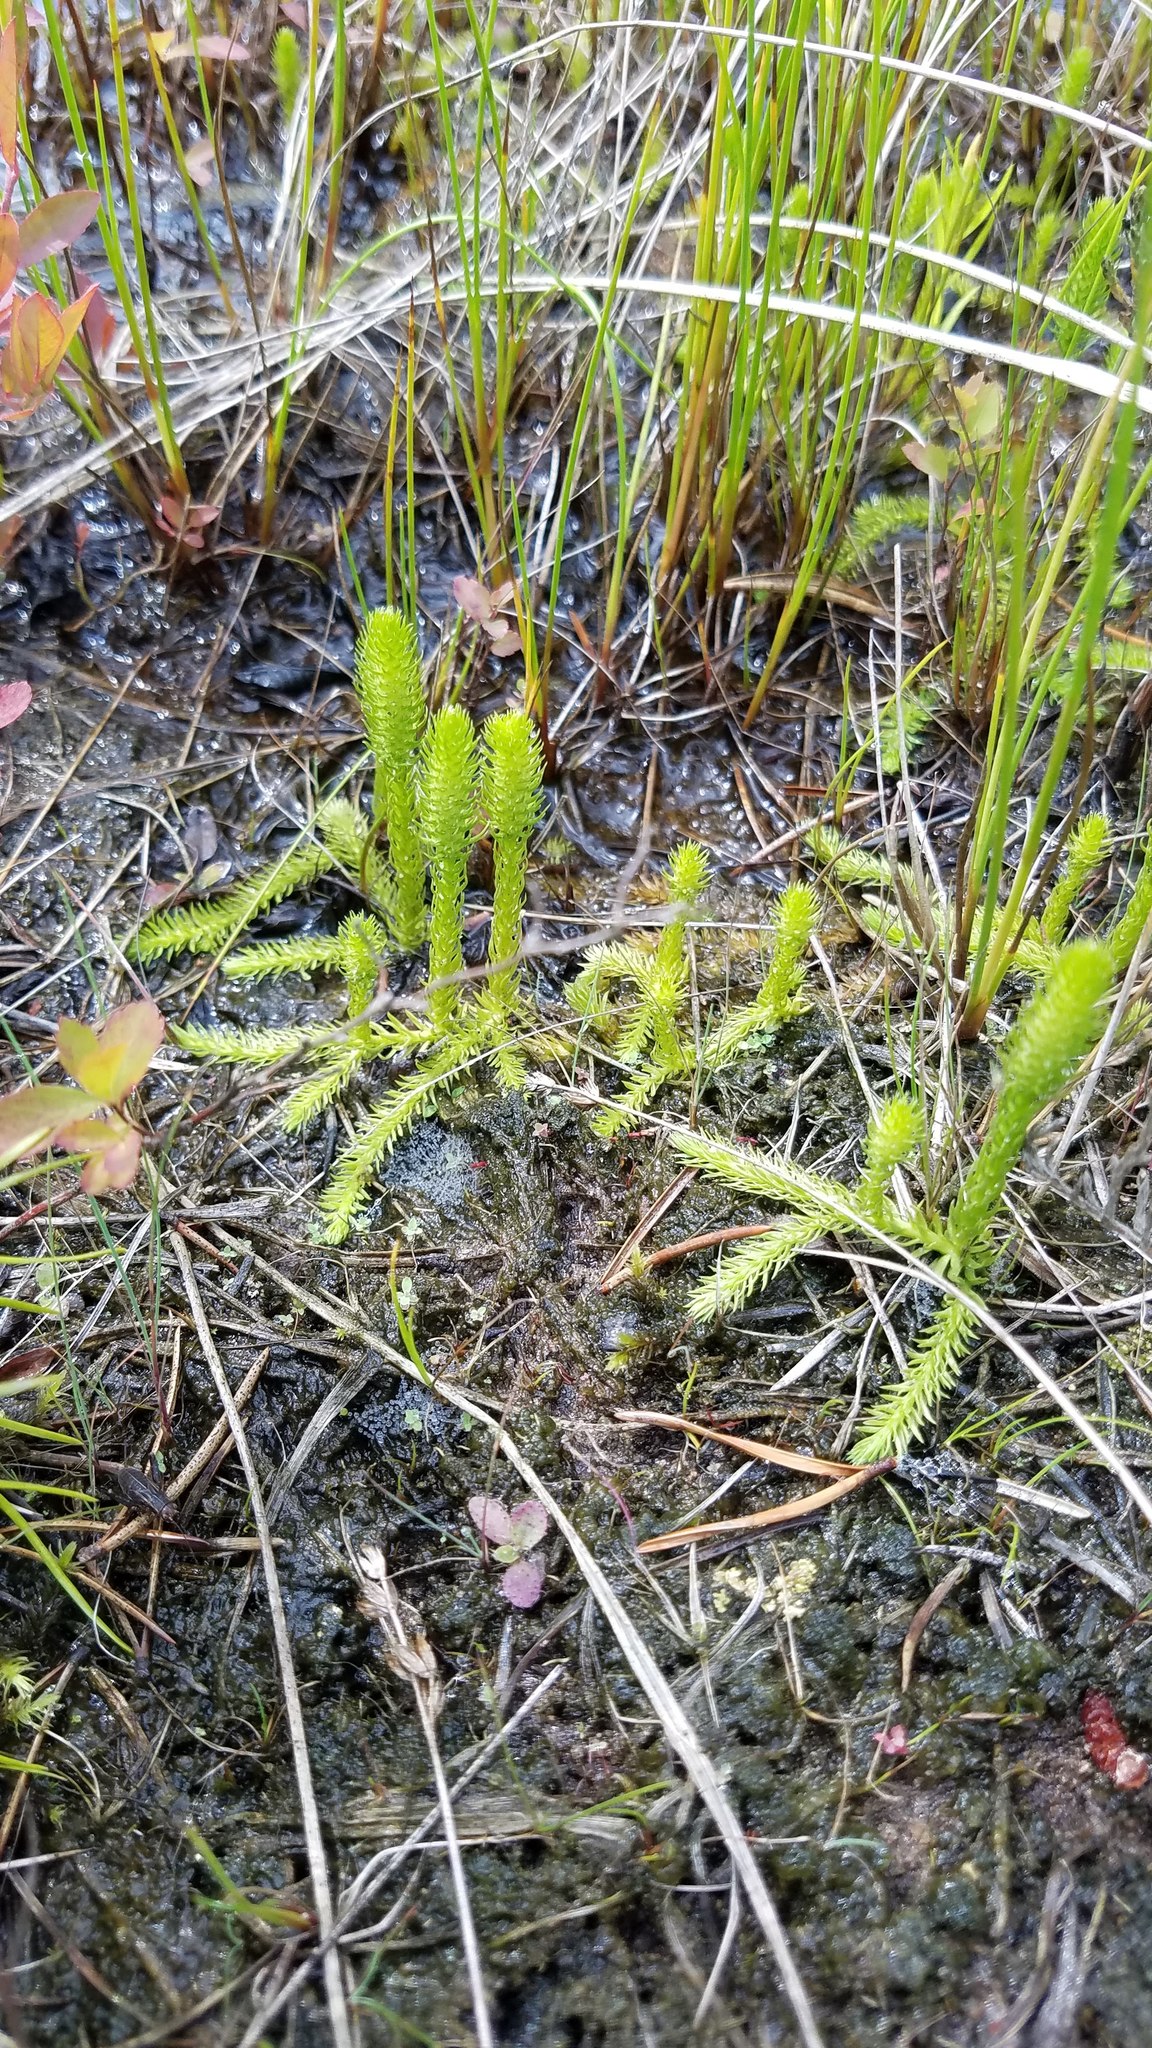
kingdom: Plantae
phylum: Tracheophyta
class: Lycopodiopsida
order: Lycopodiales
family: Lycopodiaceae
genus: Lycopodiella
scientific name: Lycopodiella inundata
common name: Marsh clubmoss
